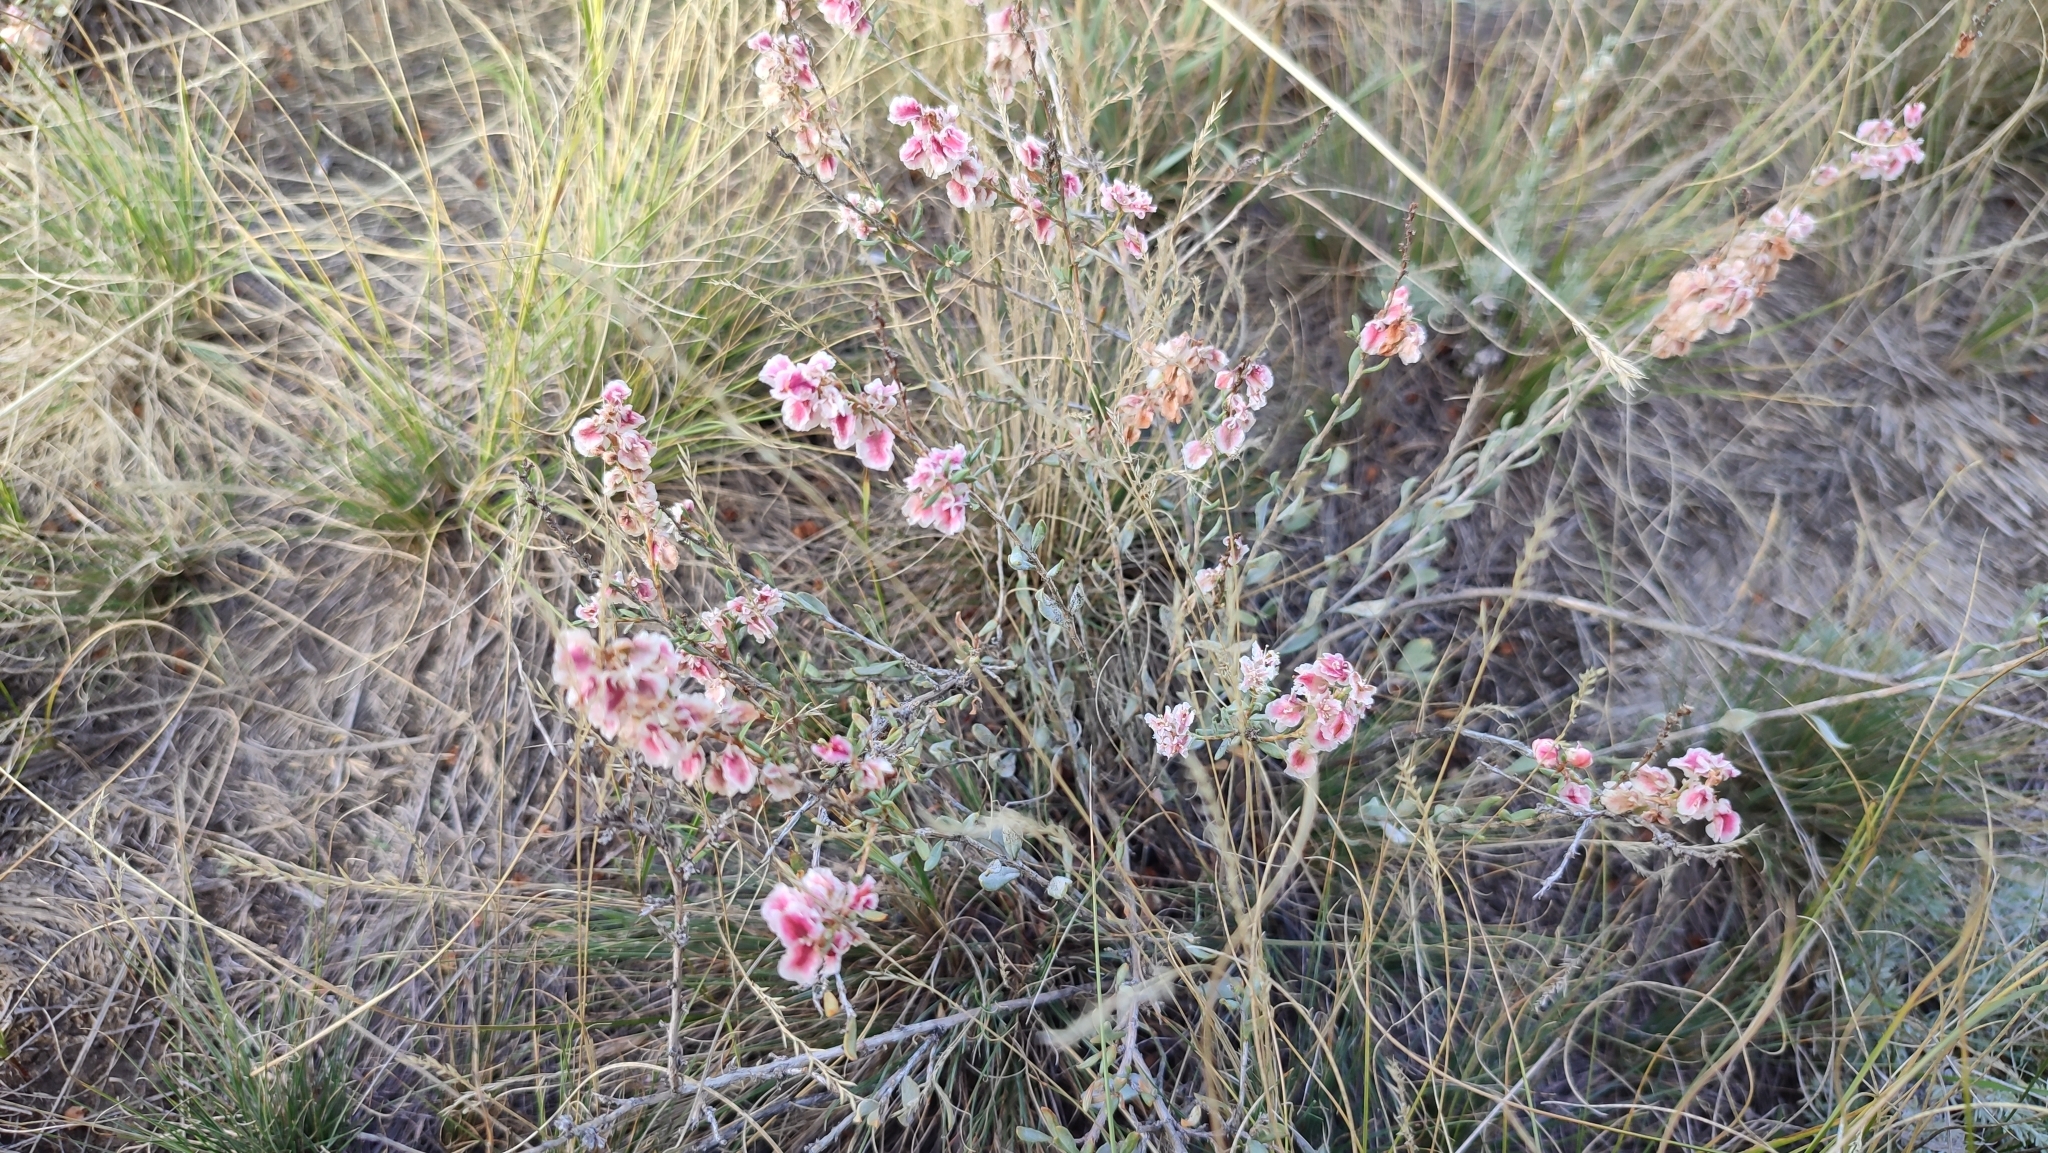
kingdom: Plantae
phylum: Tracheophyta
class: Magnoliopsida
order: Caryophyllales
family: Polygonaceae
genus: Atraphaxis
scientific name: Atraphaxis frutescens
